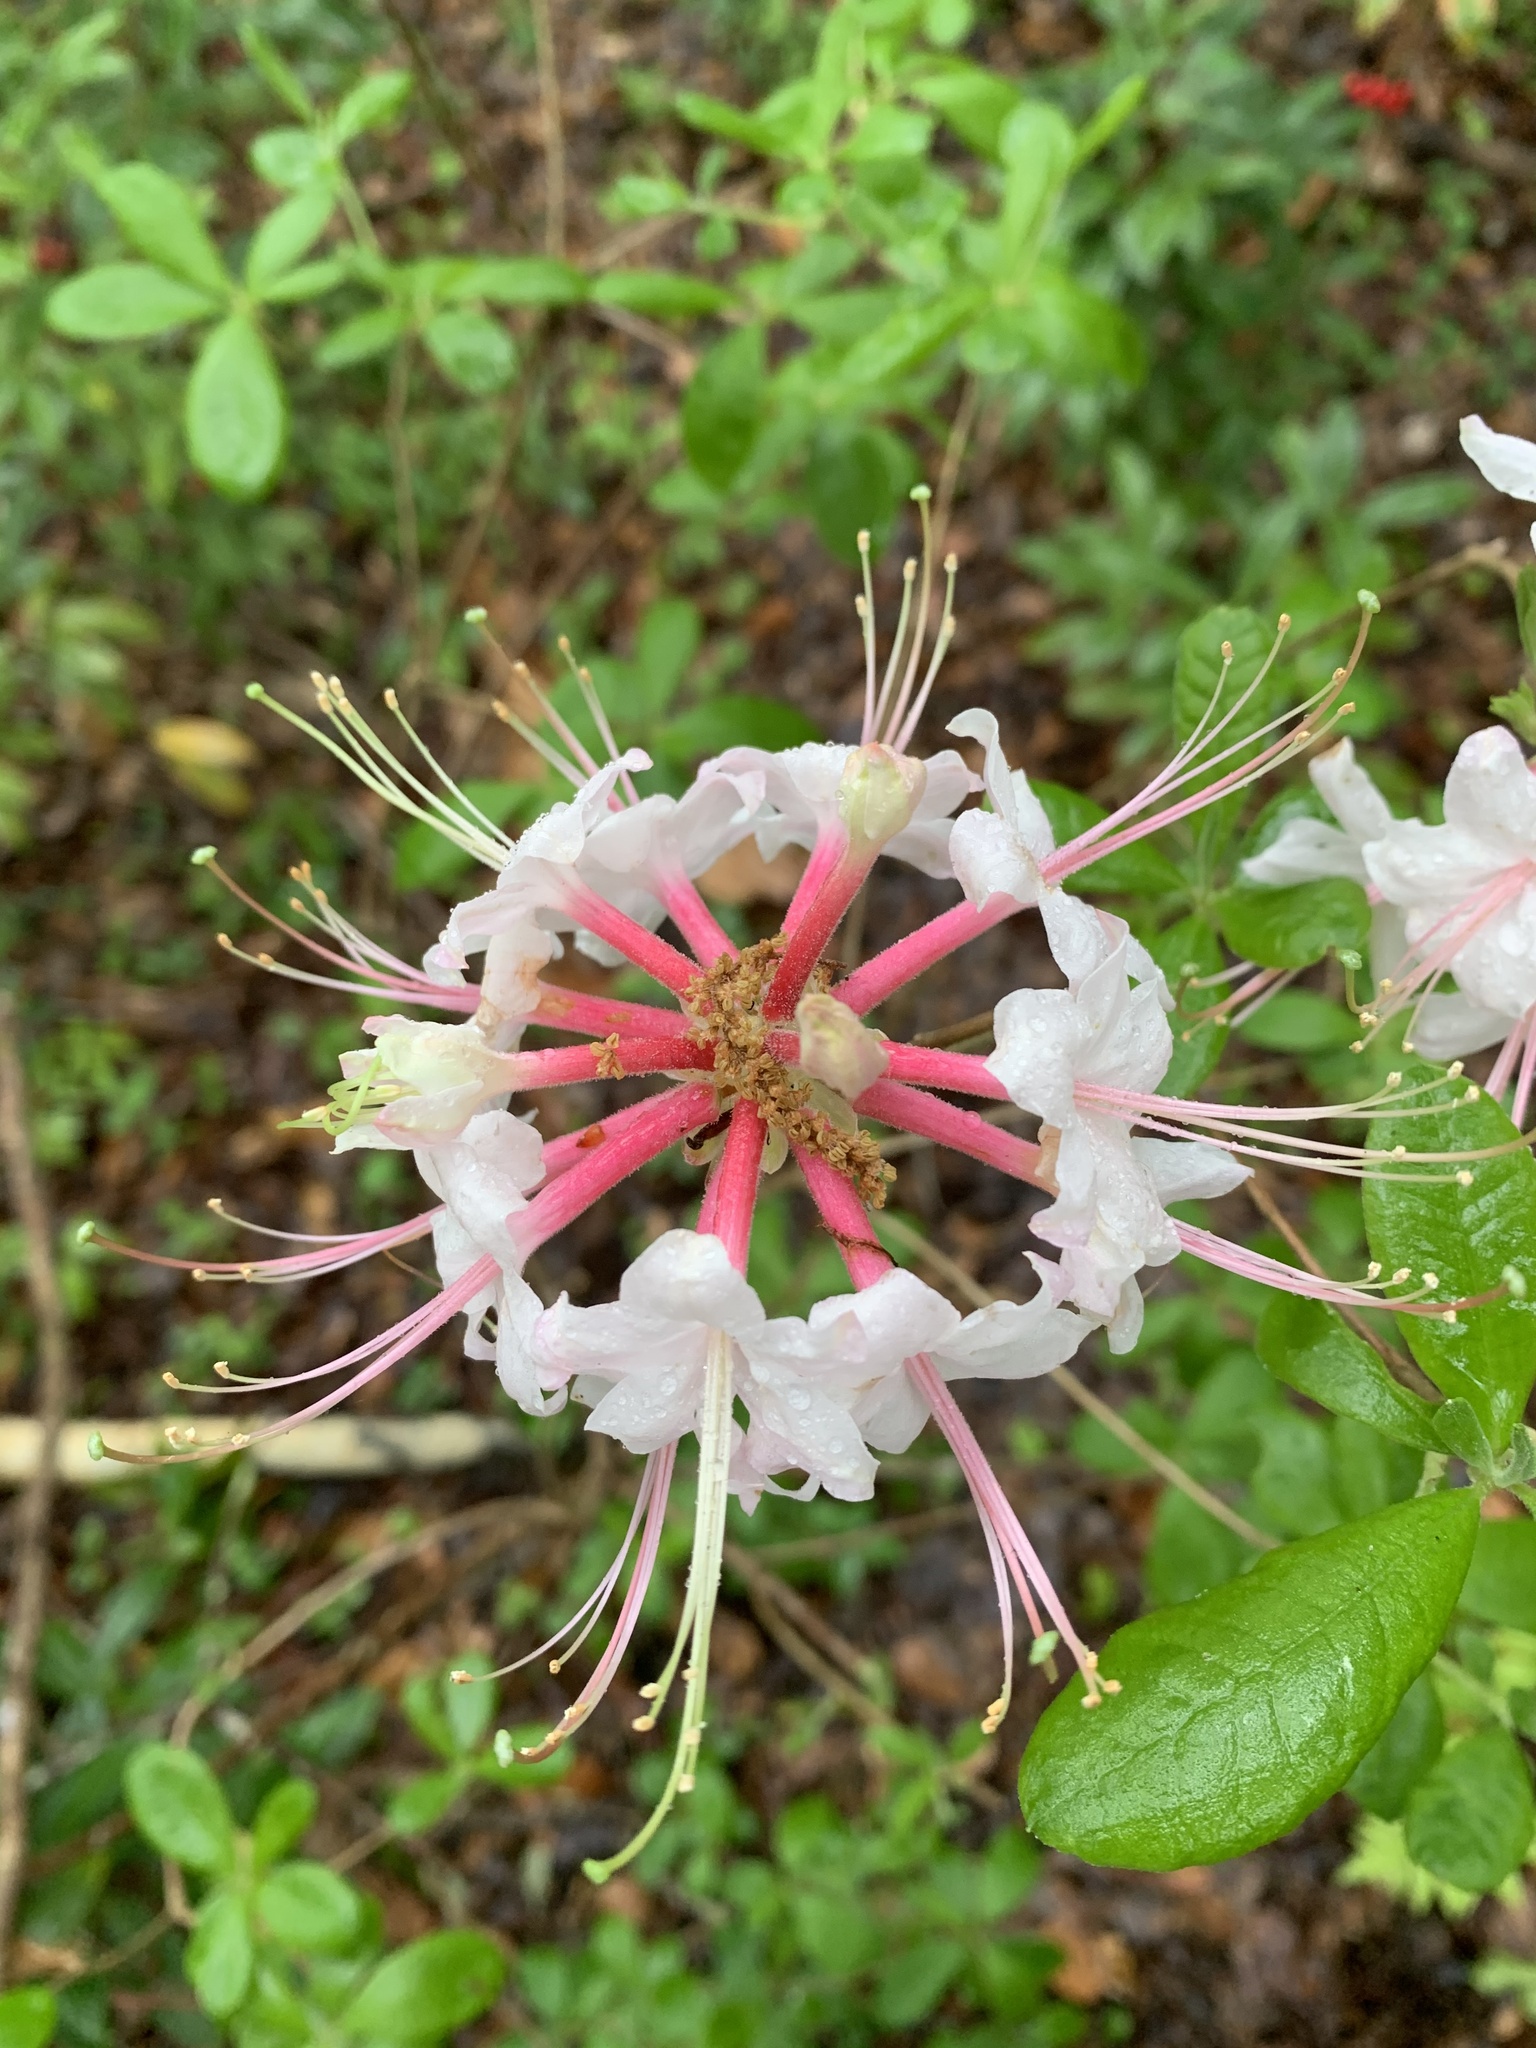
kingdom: Plantae
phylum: Tracheophyta
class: Magnoliopsida
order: Ericales
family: Ericaceae
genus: Rhododendron
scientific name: Rhododendron canescens
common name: Mountain azalea
